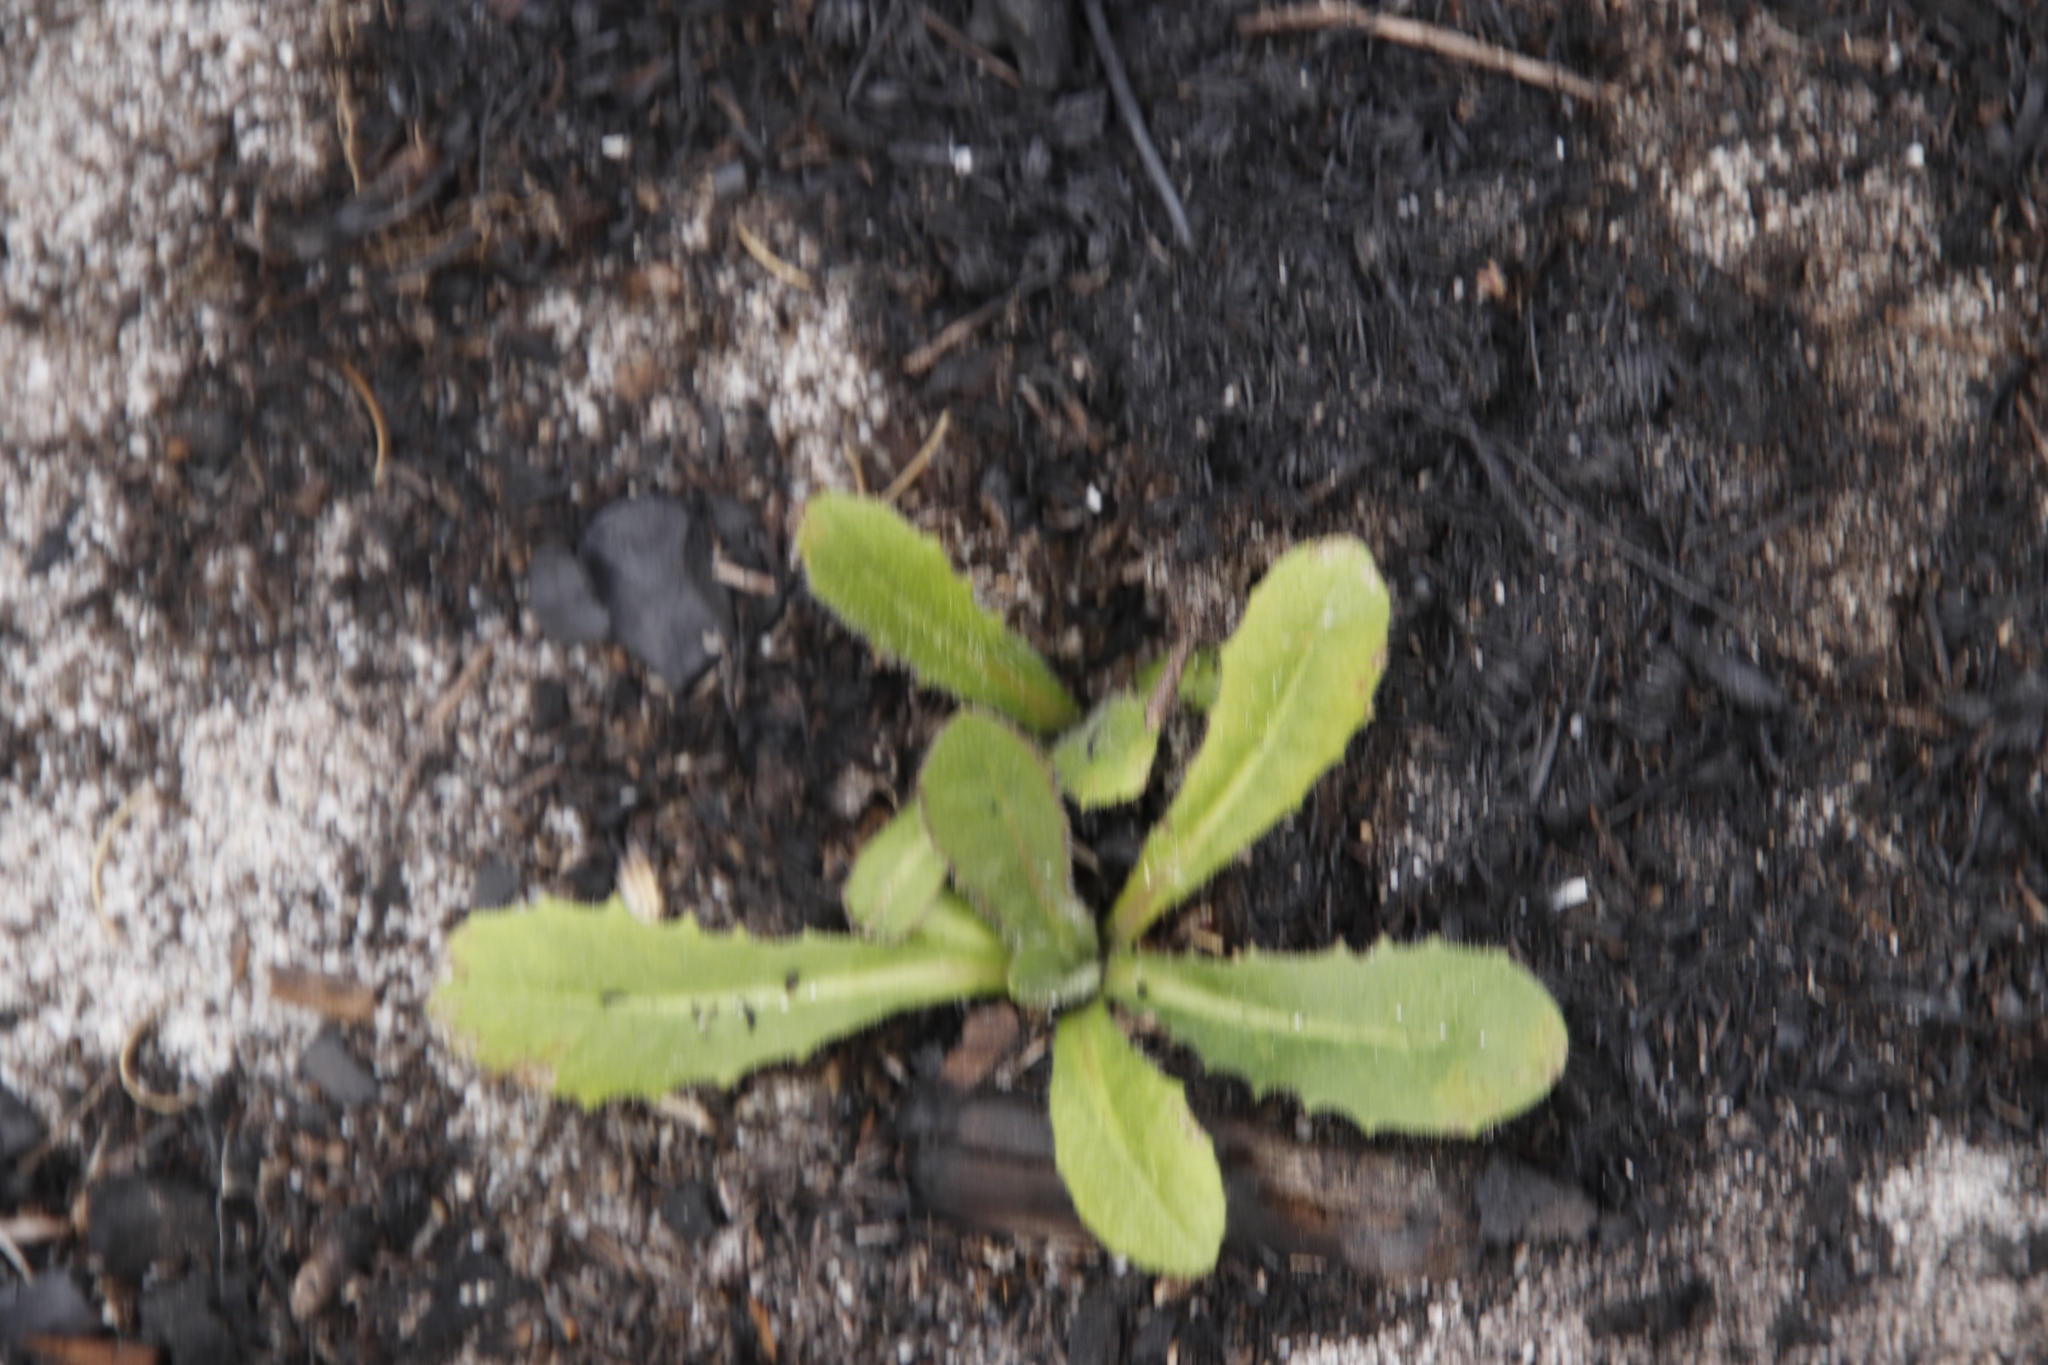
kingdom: Plantae
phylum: Tracheophyta
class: Magnoliopsida
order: Asterales
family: Asteraceae
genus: Hypochaeris
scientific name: Hypochaeris radicata
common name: Flatweed
